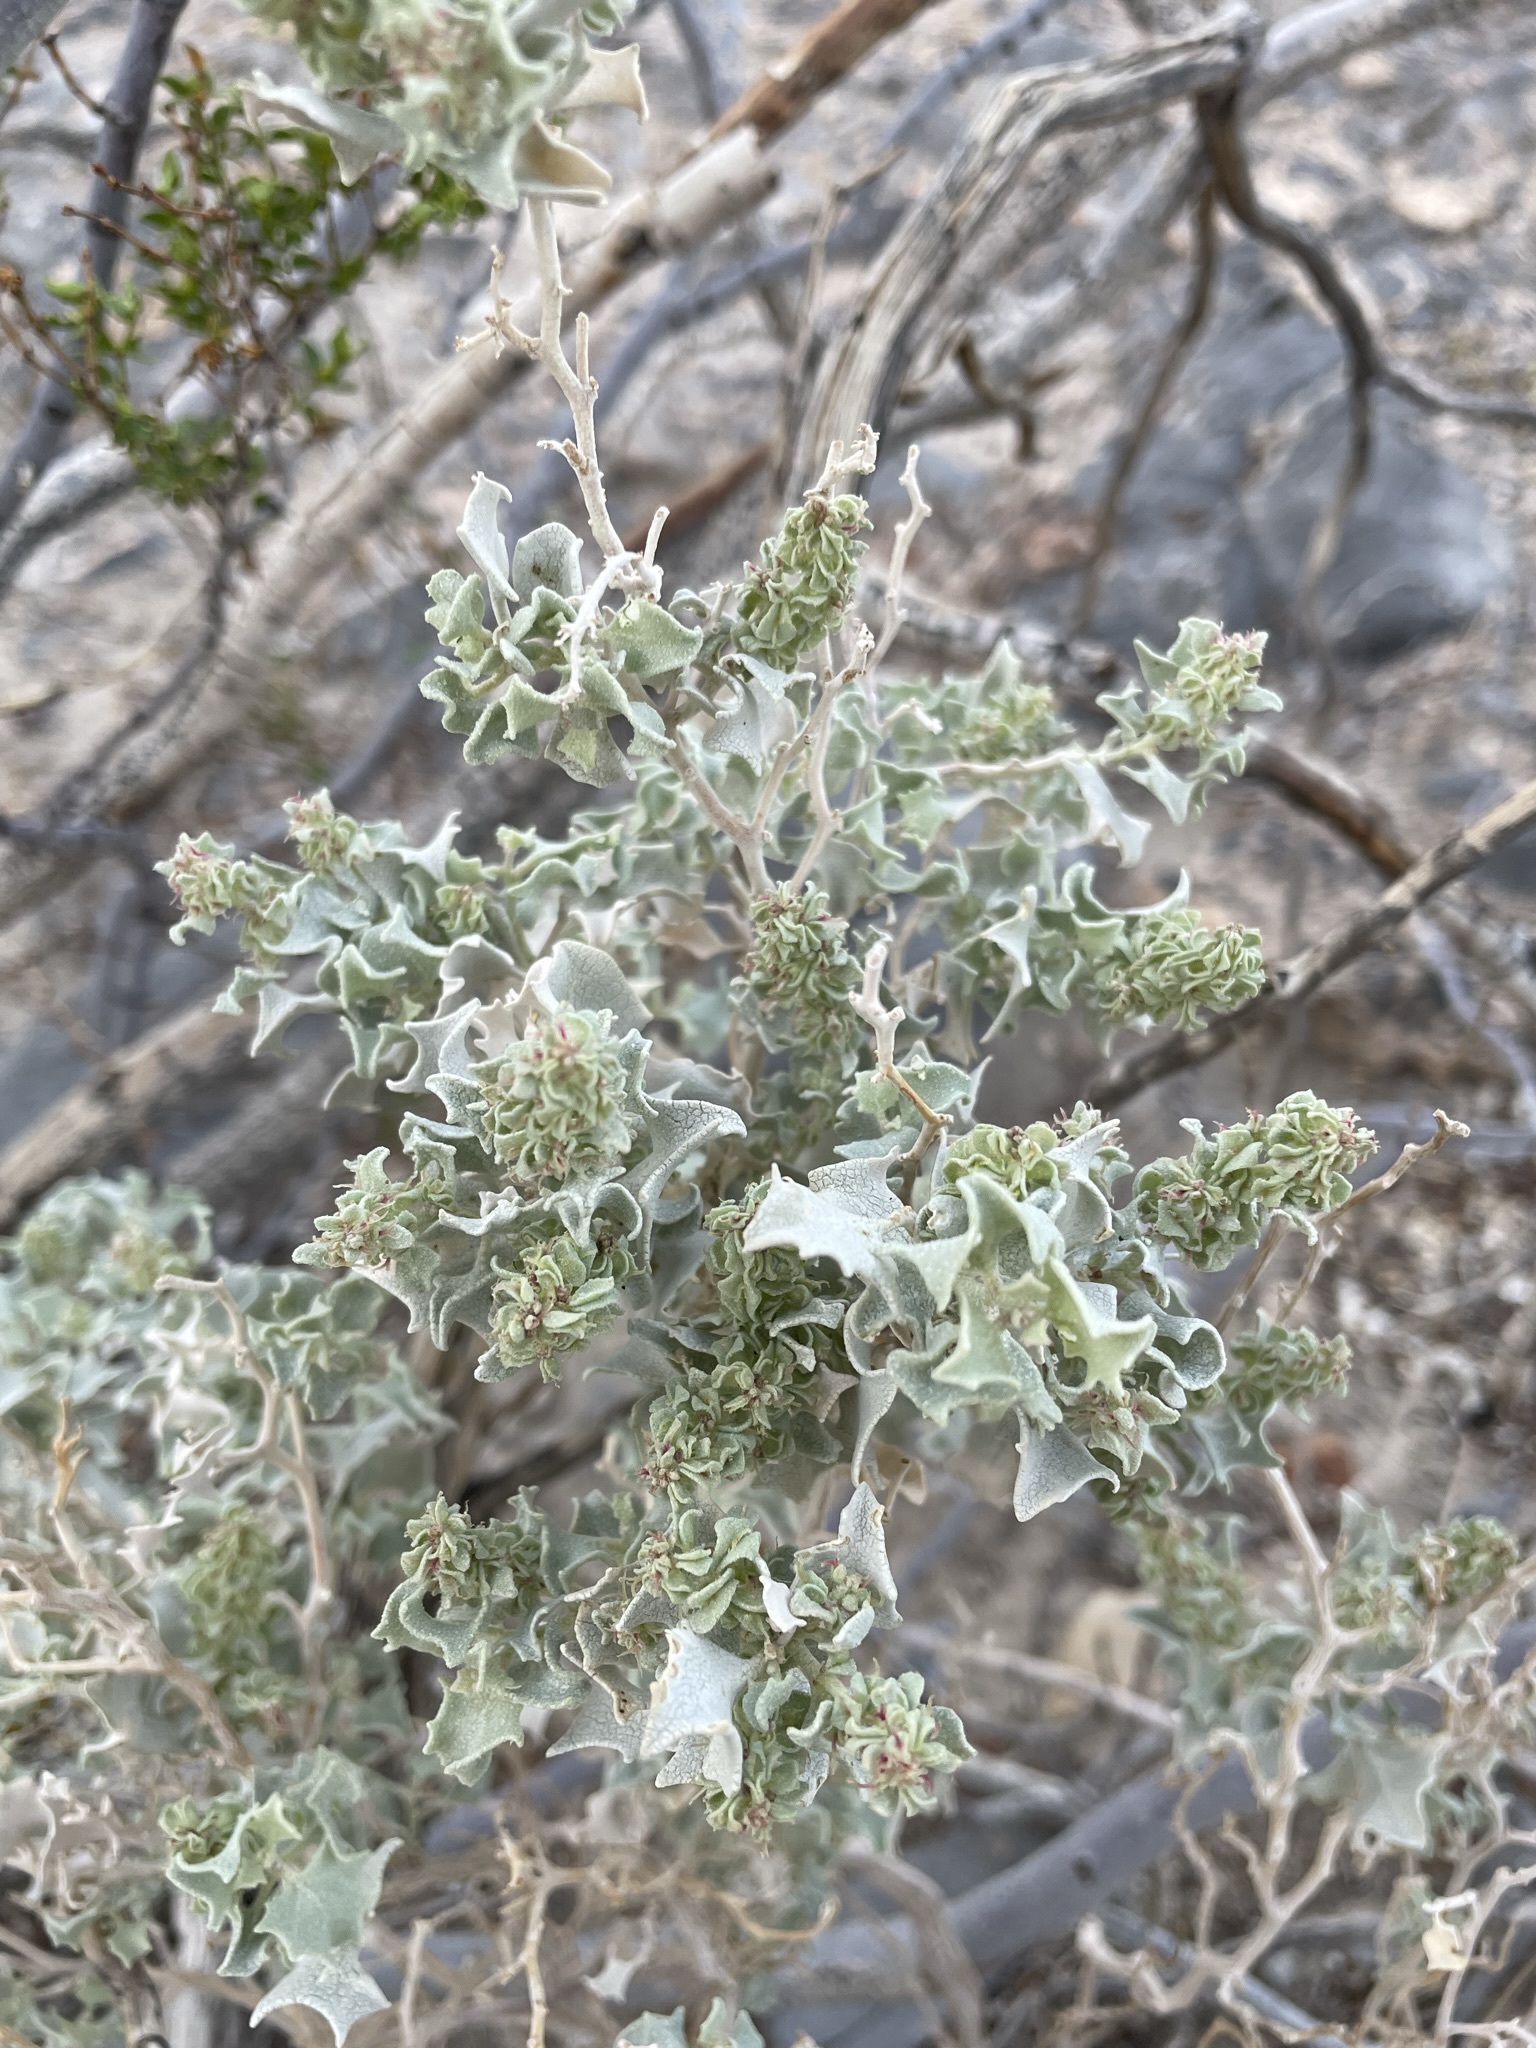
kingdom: Plantae
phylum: Tracheophyta
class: Magnoliopsida
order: Caryophyllales
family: Amaranthaceae
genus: Atriplex
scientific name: Atriplex hymenelytra
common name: Desert-holly
